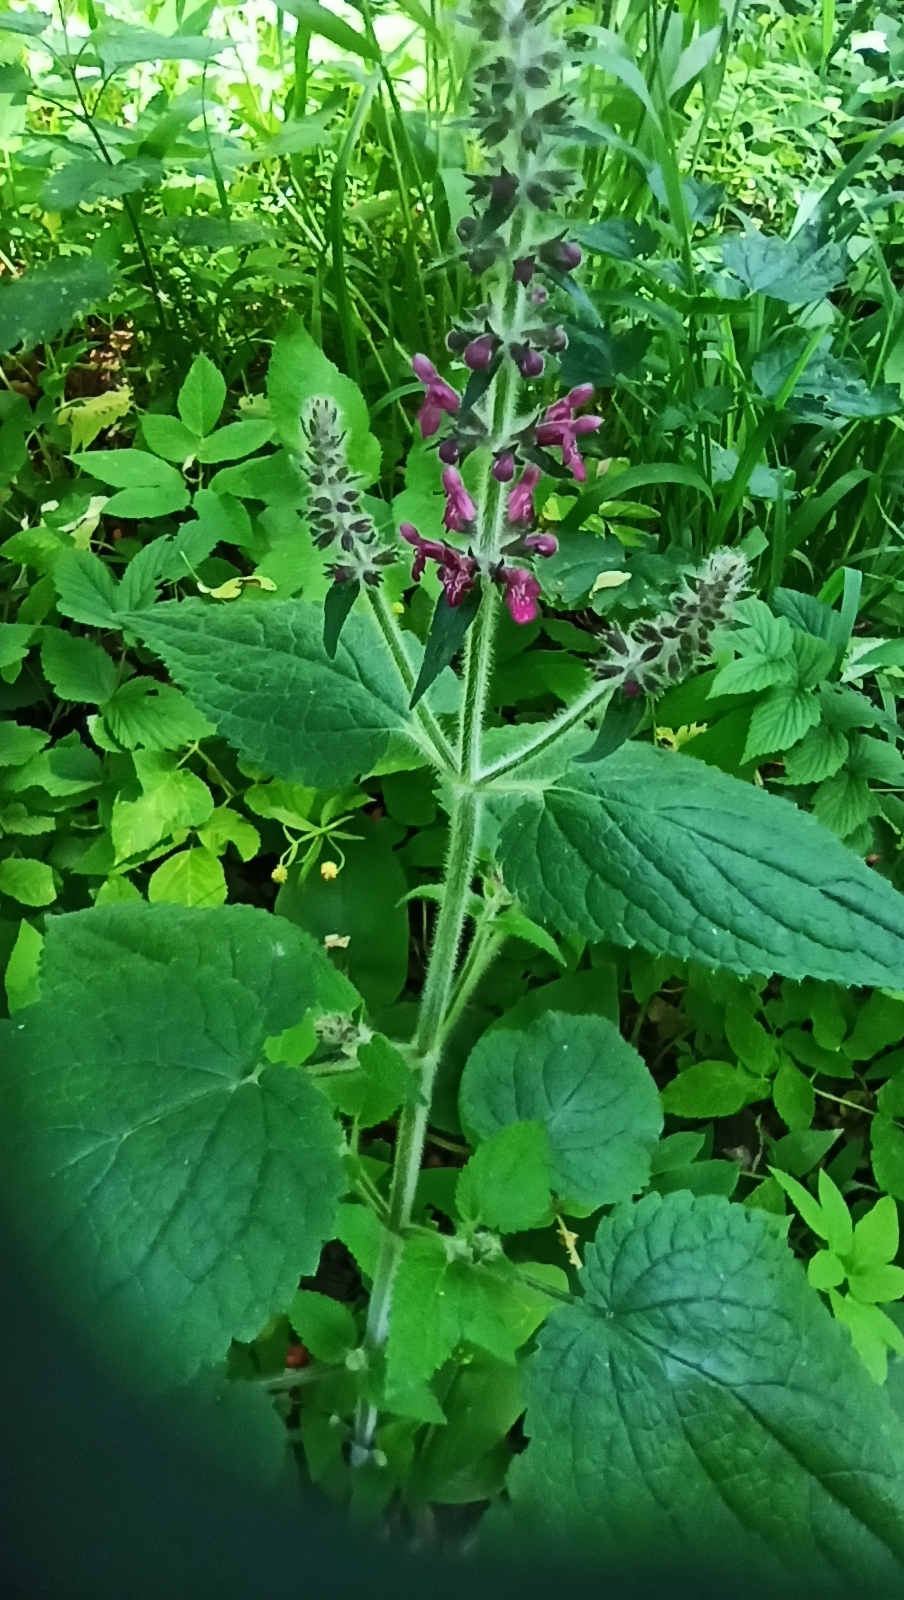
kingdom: Plantae
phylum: Tracheophyta
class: Magnoliopsida
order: Lamiales
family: Lamiaceae
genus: Stachys
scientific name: Stachys sylvatica
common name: Hedge woundwort
